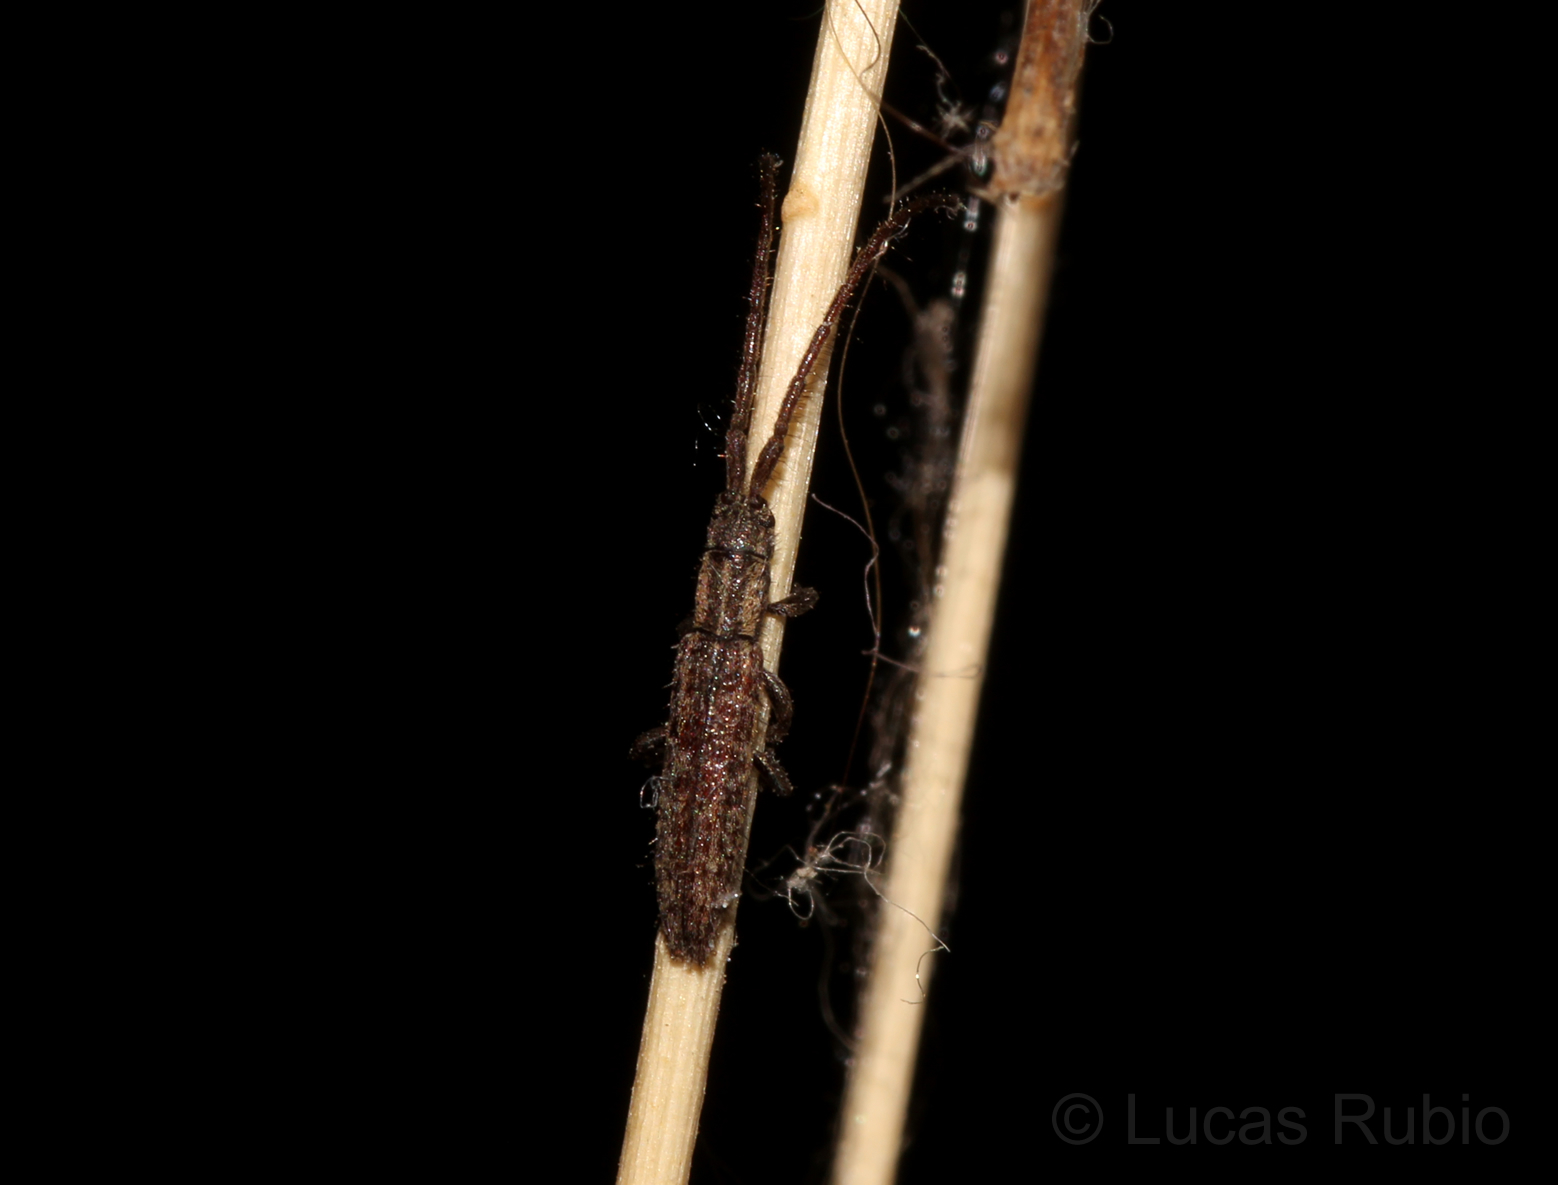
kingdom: Animalia
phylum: Arthropoda
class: Insecta
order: Coleoptera
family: Cerambycidae
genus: Dorcasta
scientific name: Dorcasta implicata
